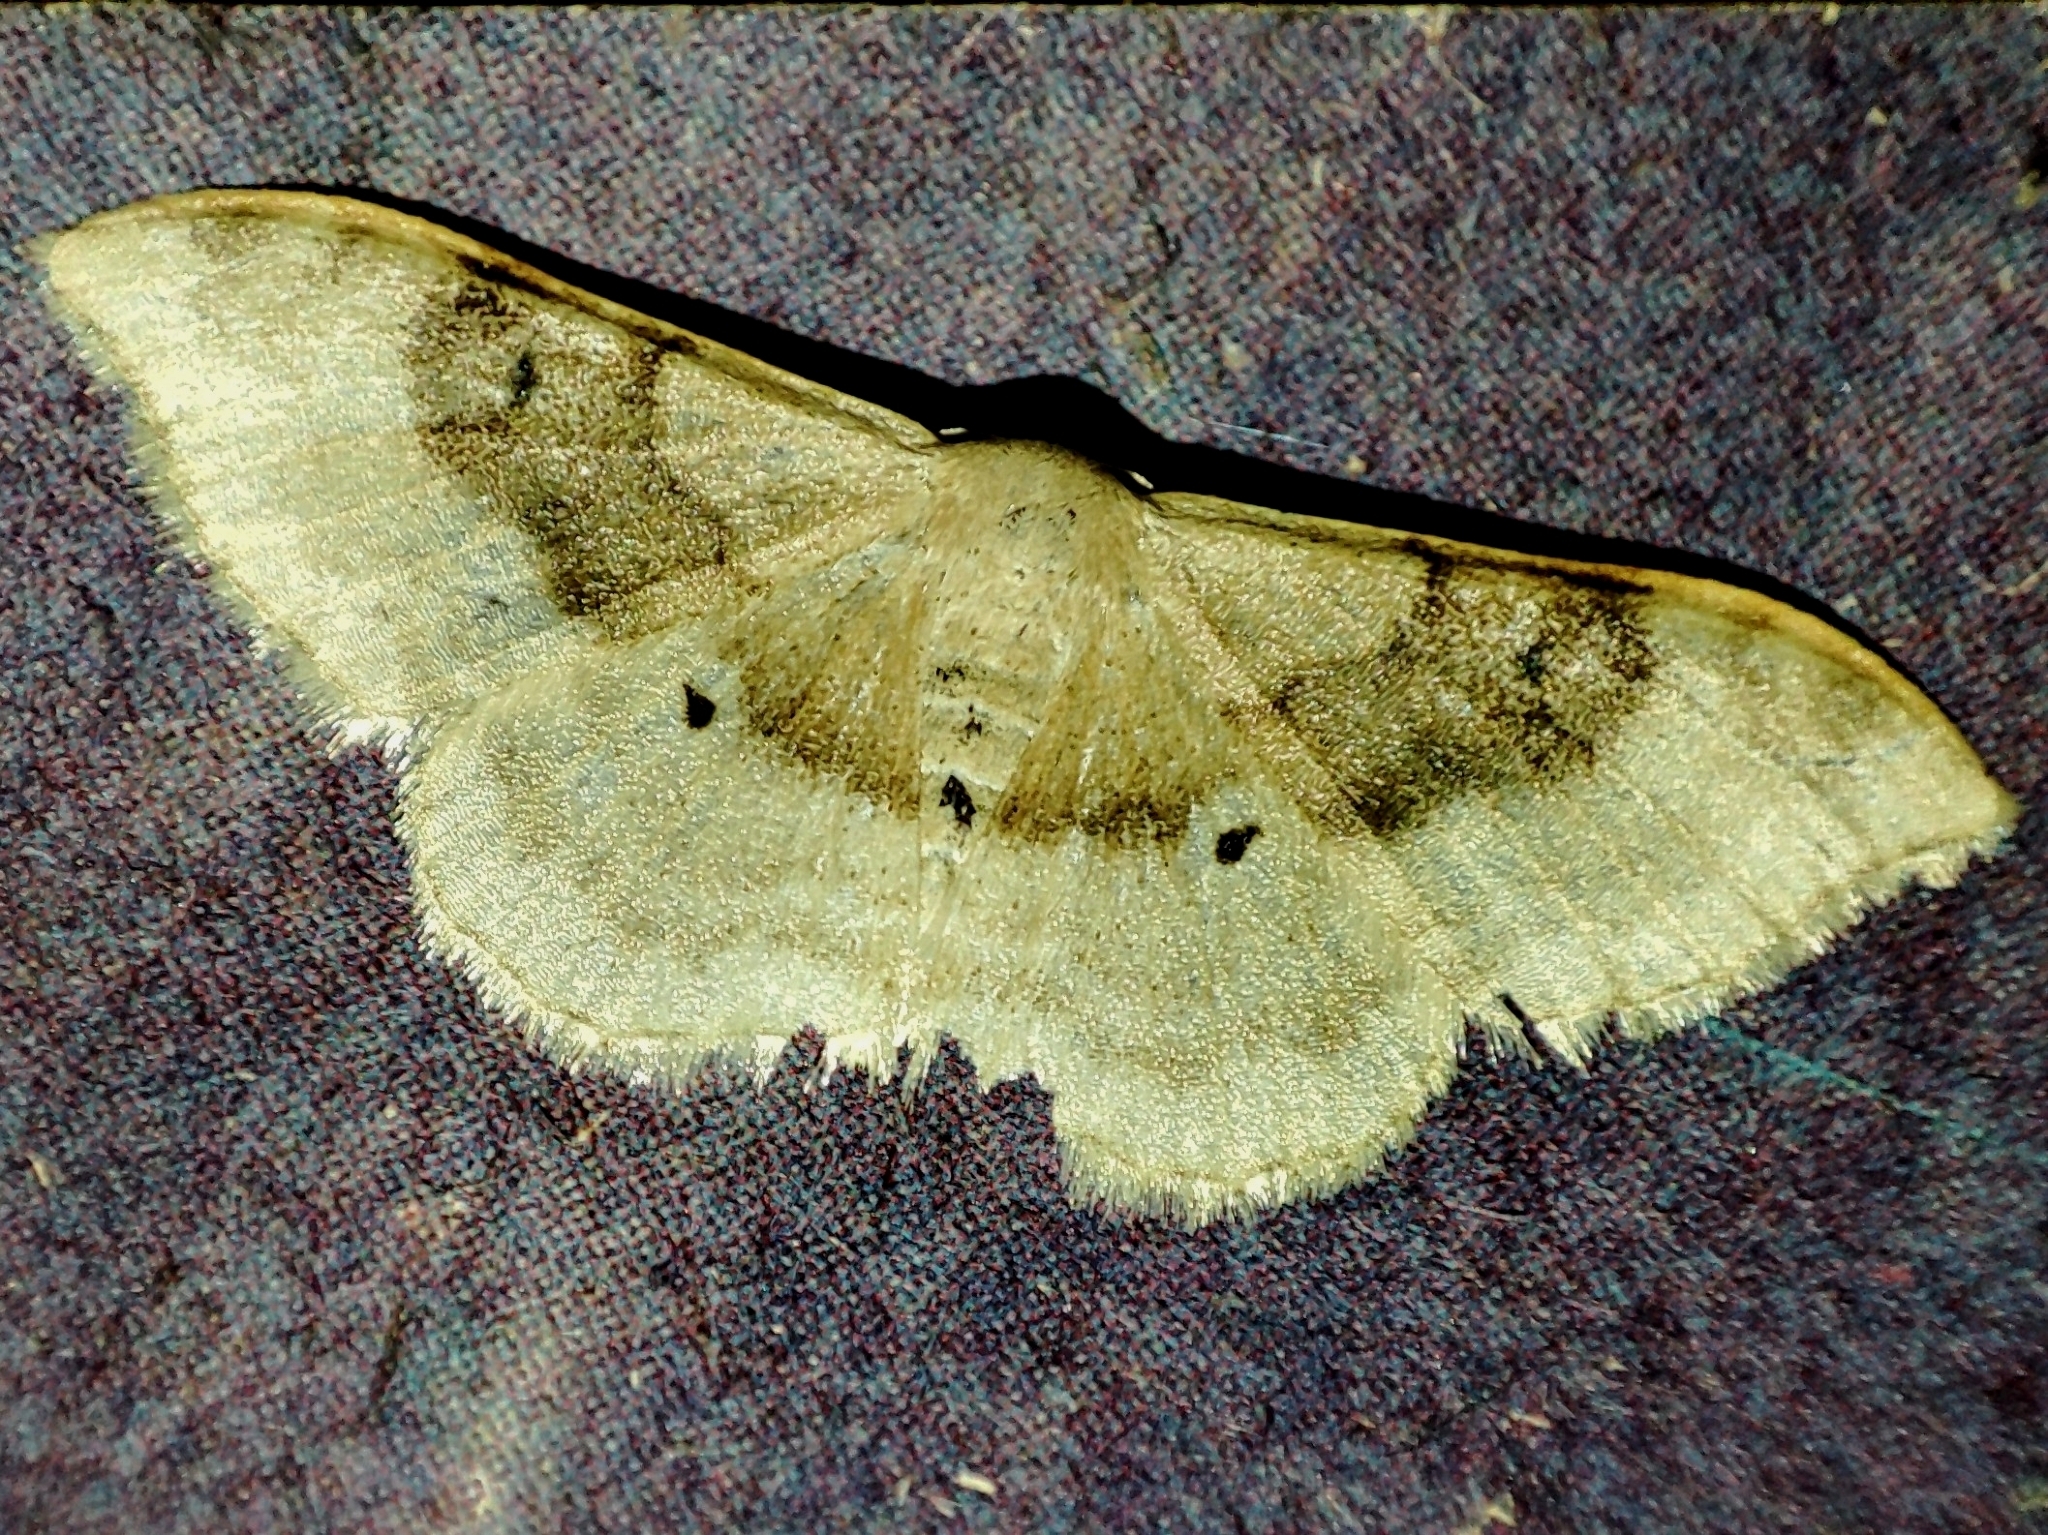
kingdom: Animalia
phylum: Arthropoda
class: Insecta
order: Lepidoptera
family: Geometridae
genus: Idaea
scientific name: Idaea degeneraria
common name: Portland ribbon wave
